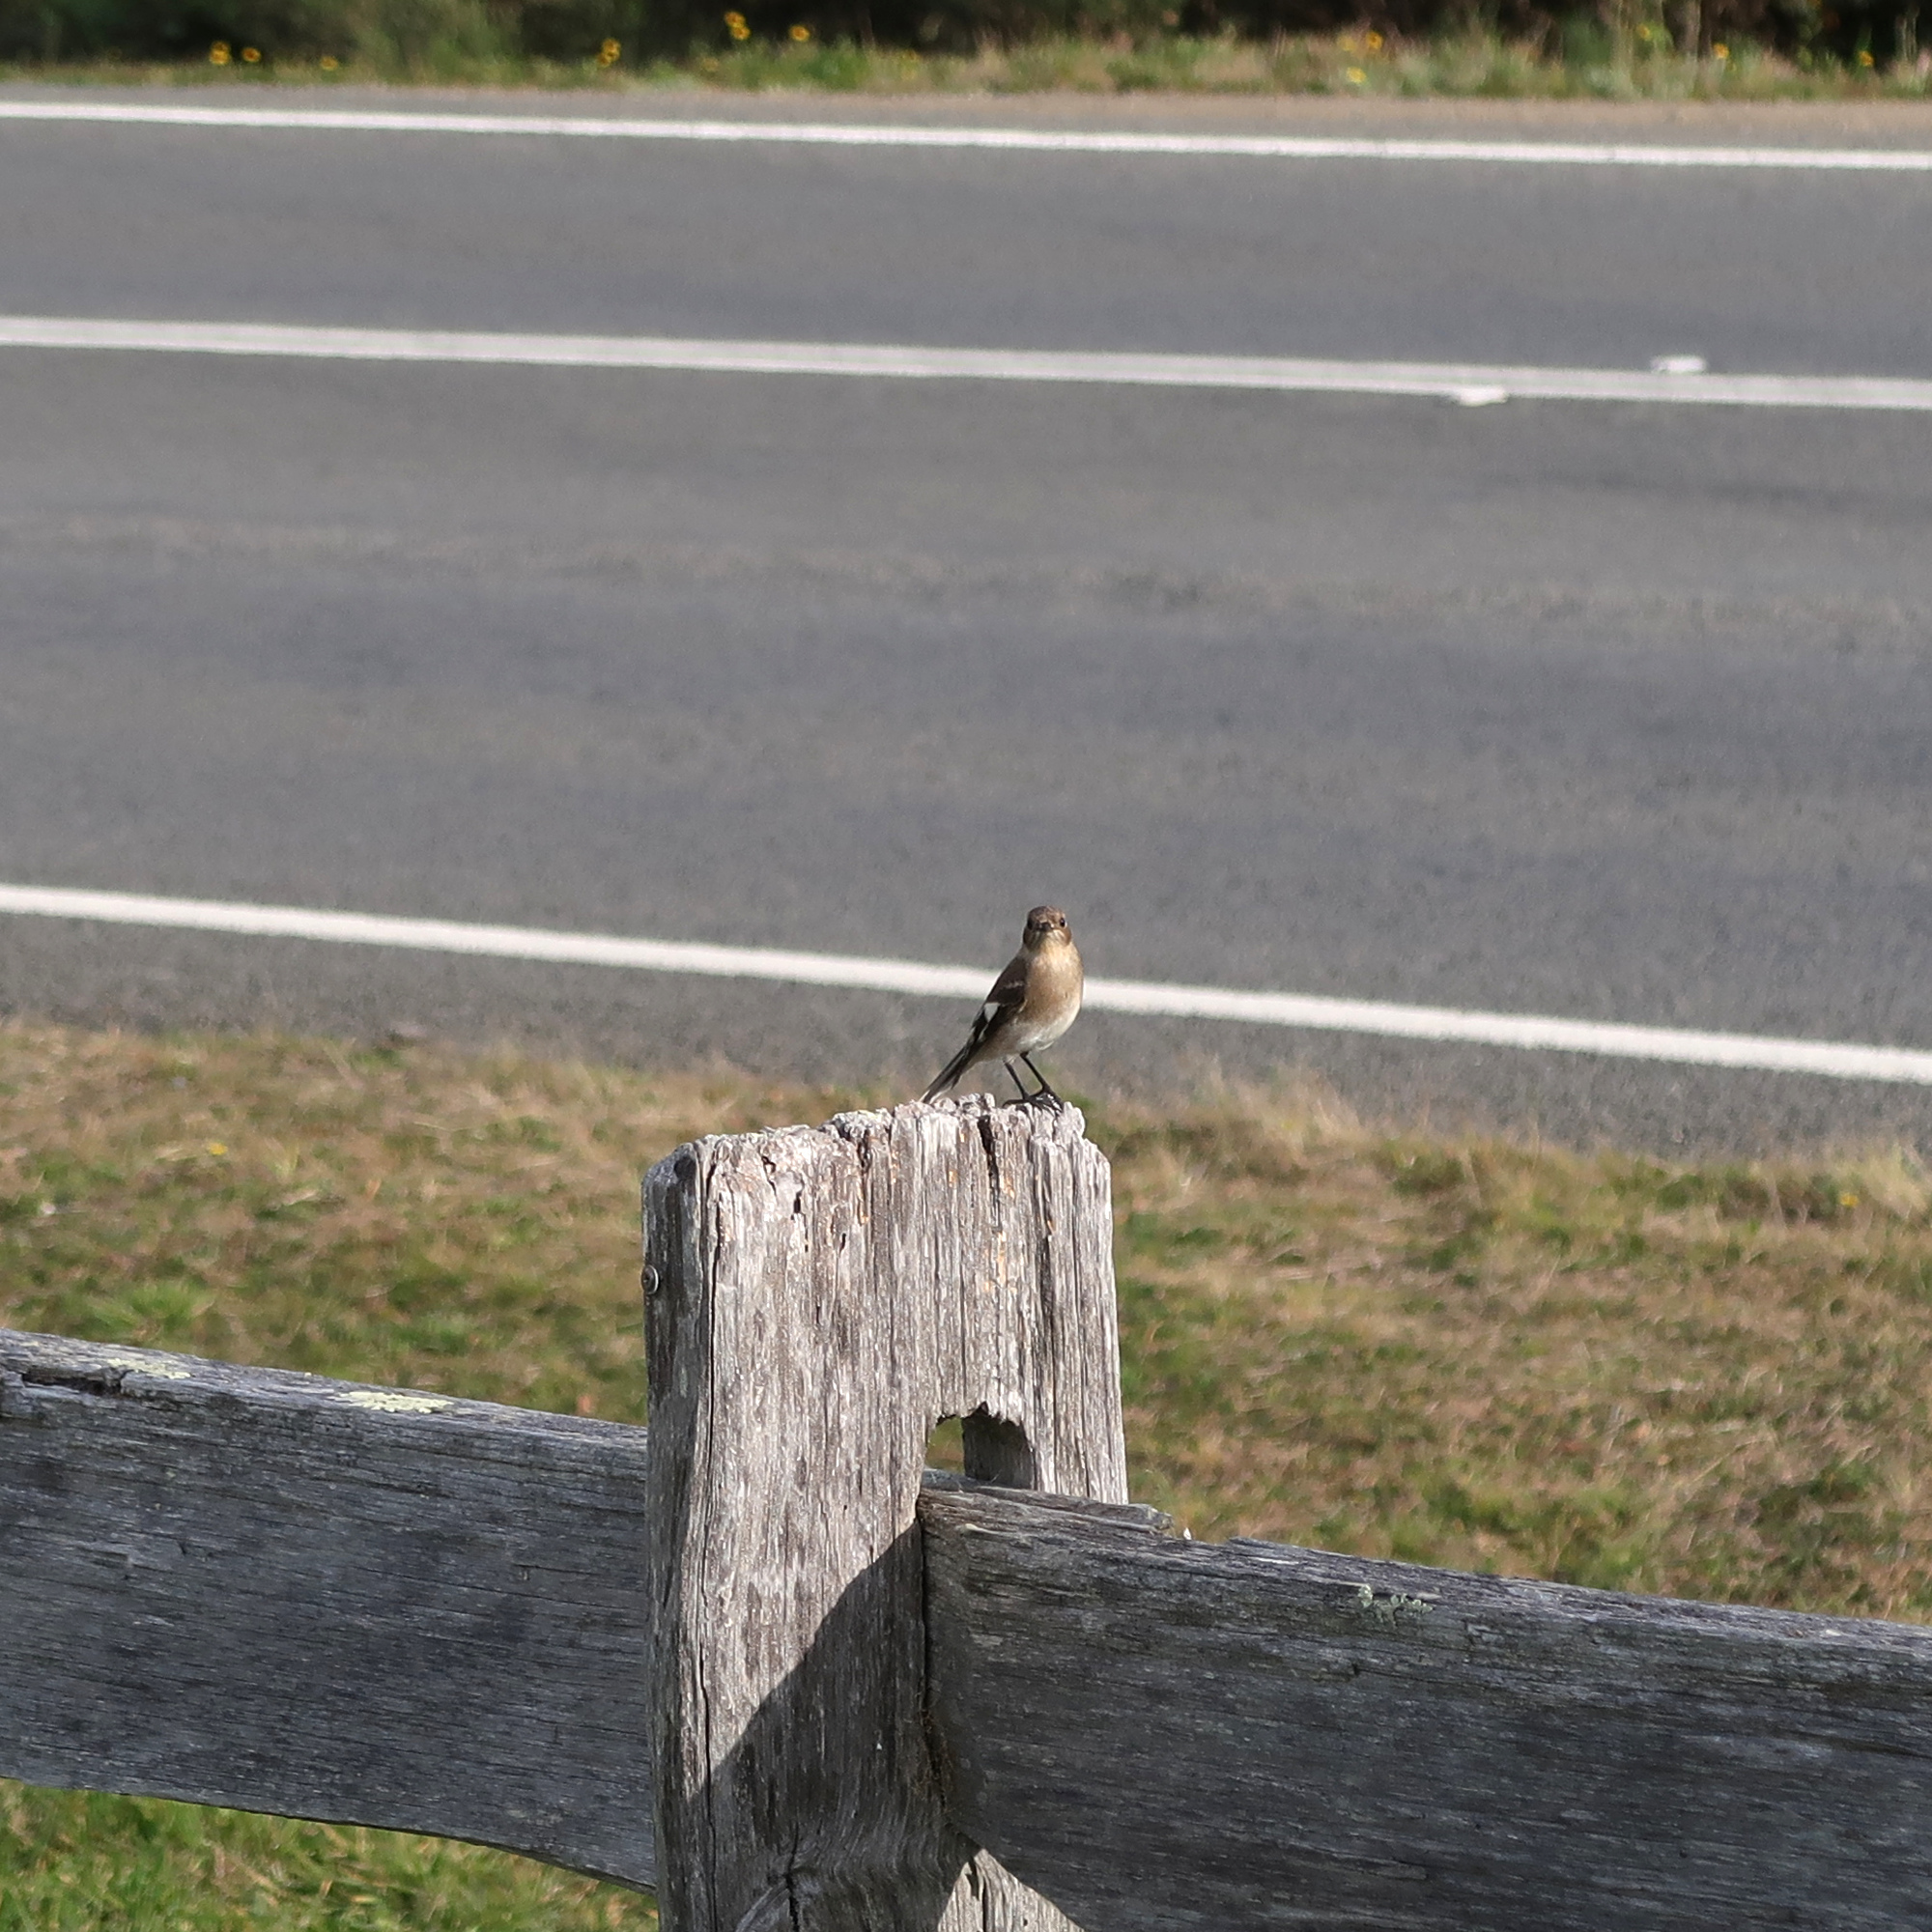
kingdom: Animalia
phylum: Chordata
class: Aves
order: Passeriformes
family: Petroicidae
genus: Petroica
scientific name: Petroica phoenicea
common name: Flame robin
